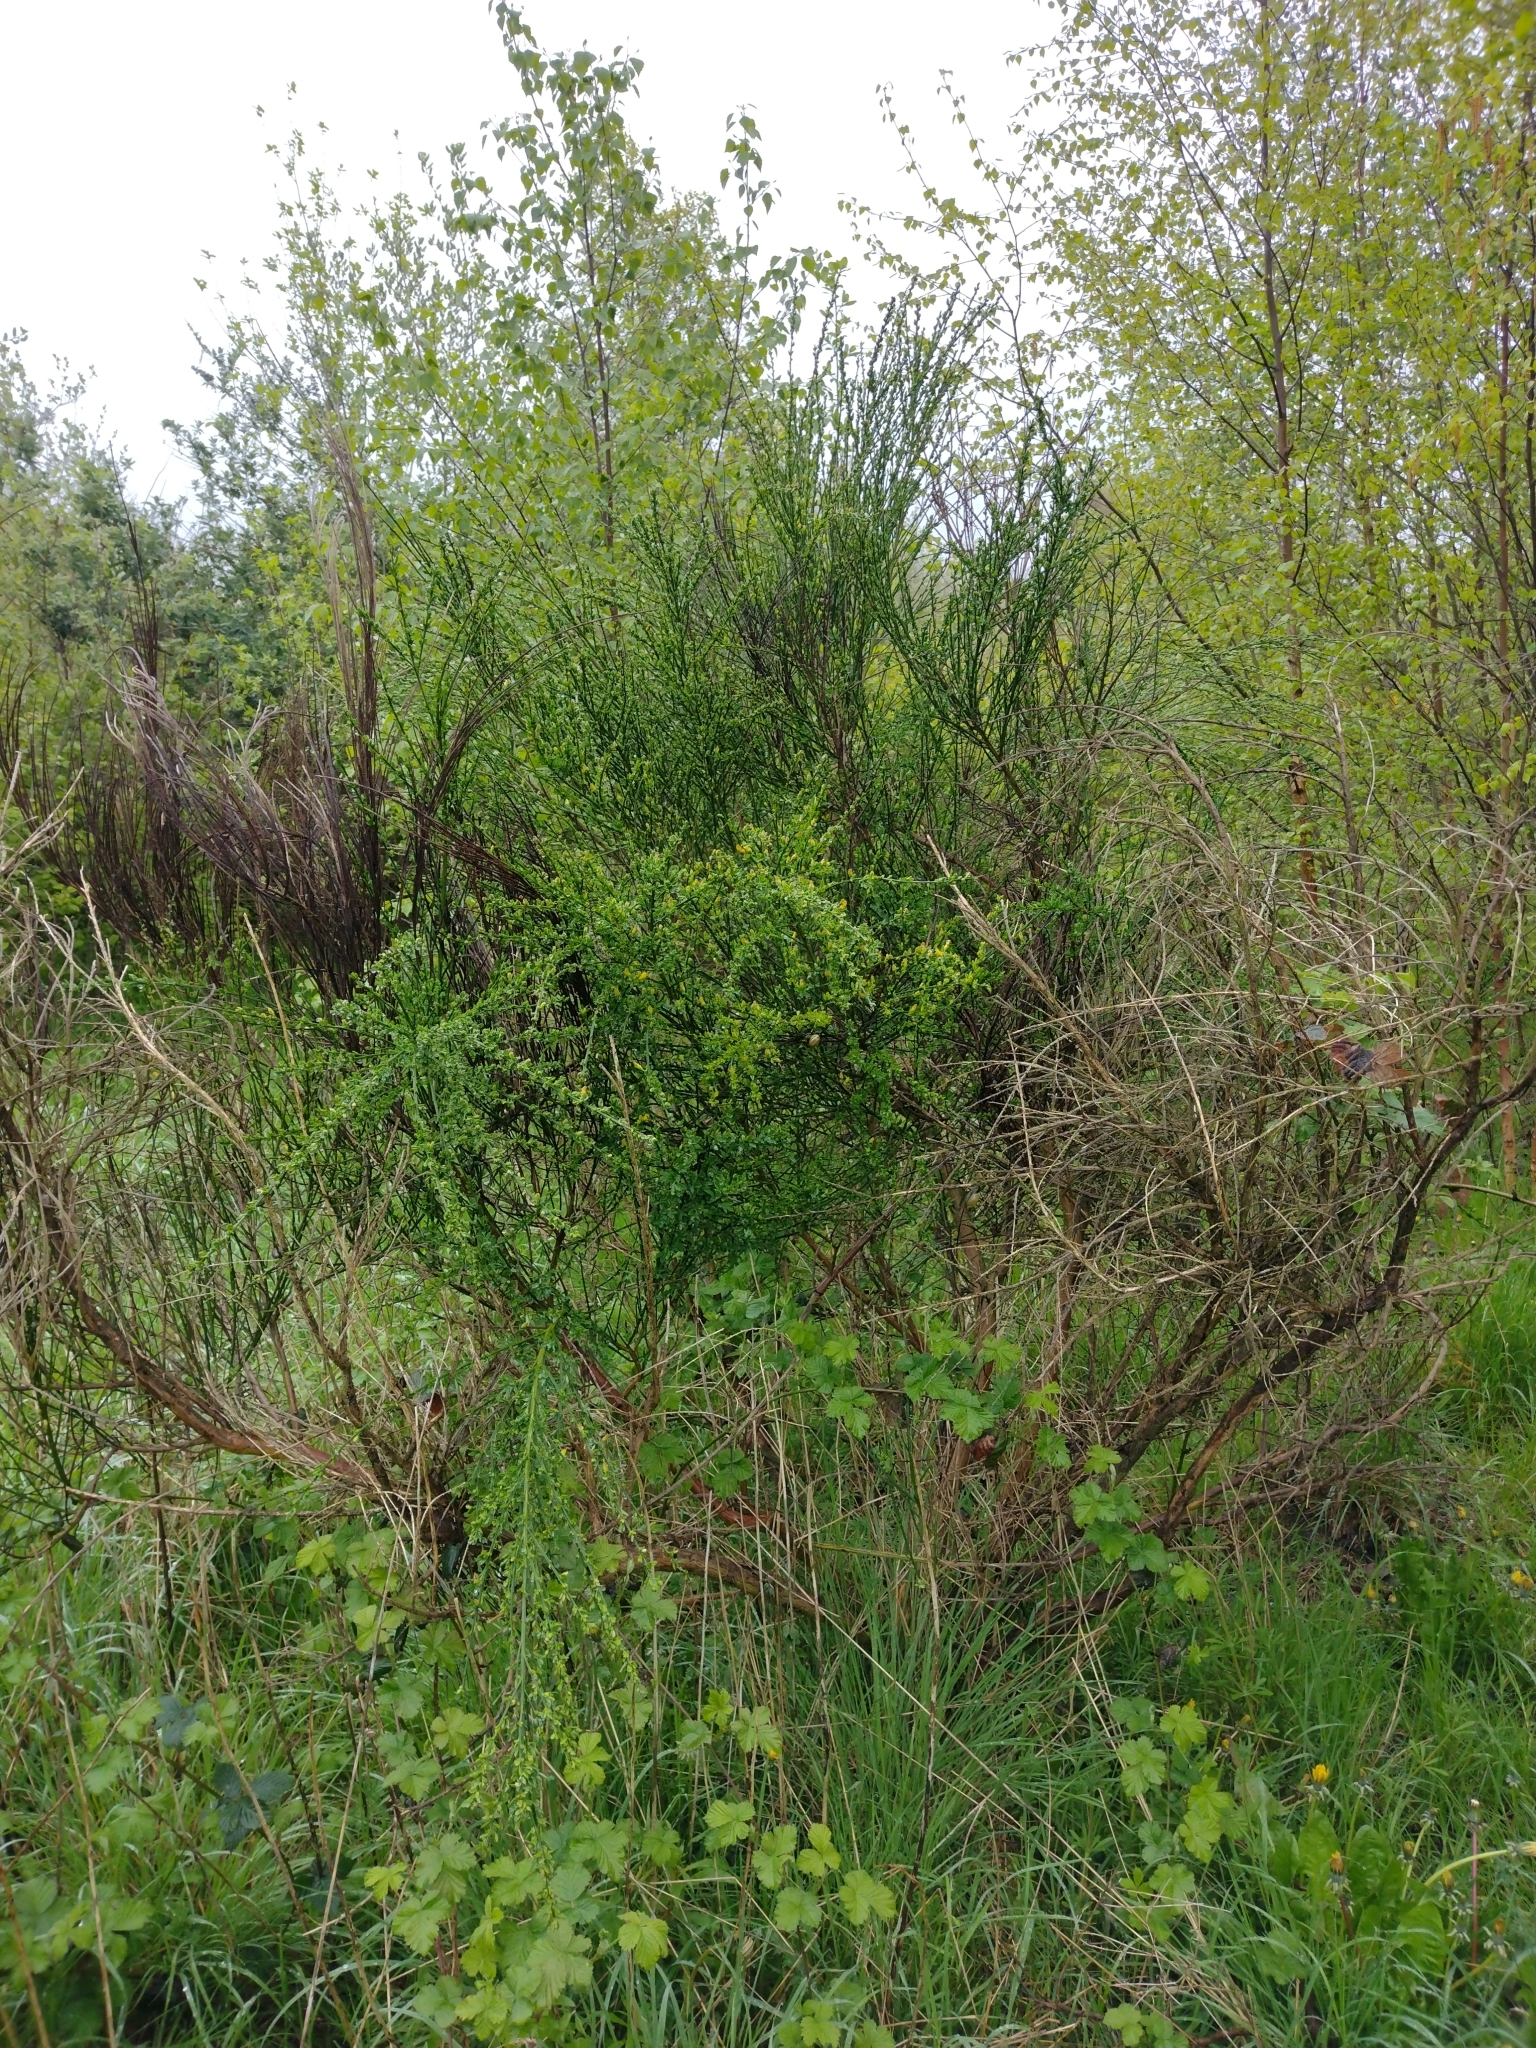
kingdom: Plantae
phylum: Tracheophyta
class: Magnoliopsida
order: Fabales
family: Fabaceae
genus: Cytisus
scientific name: Cytisus scoparius
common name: Scotch broom
